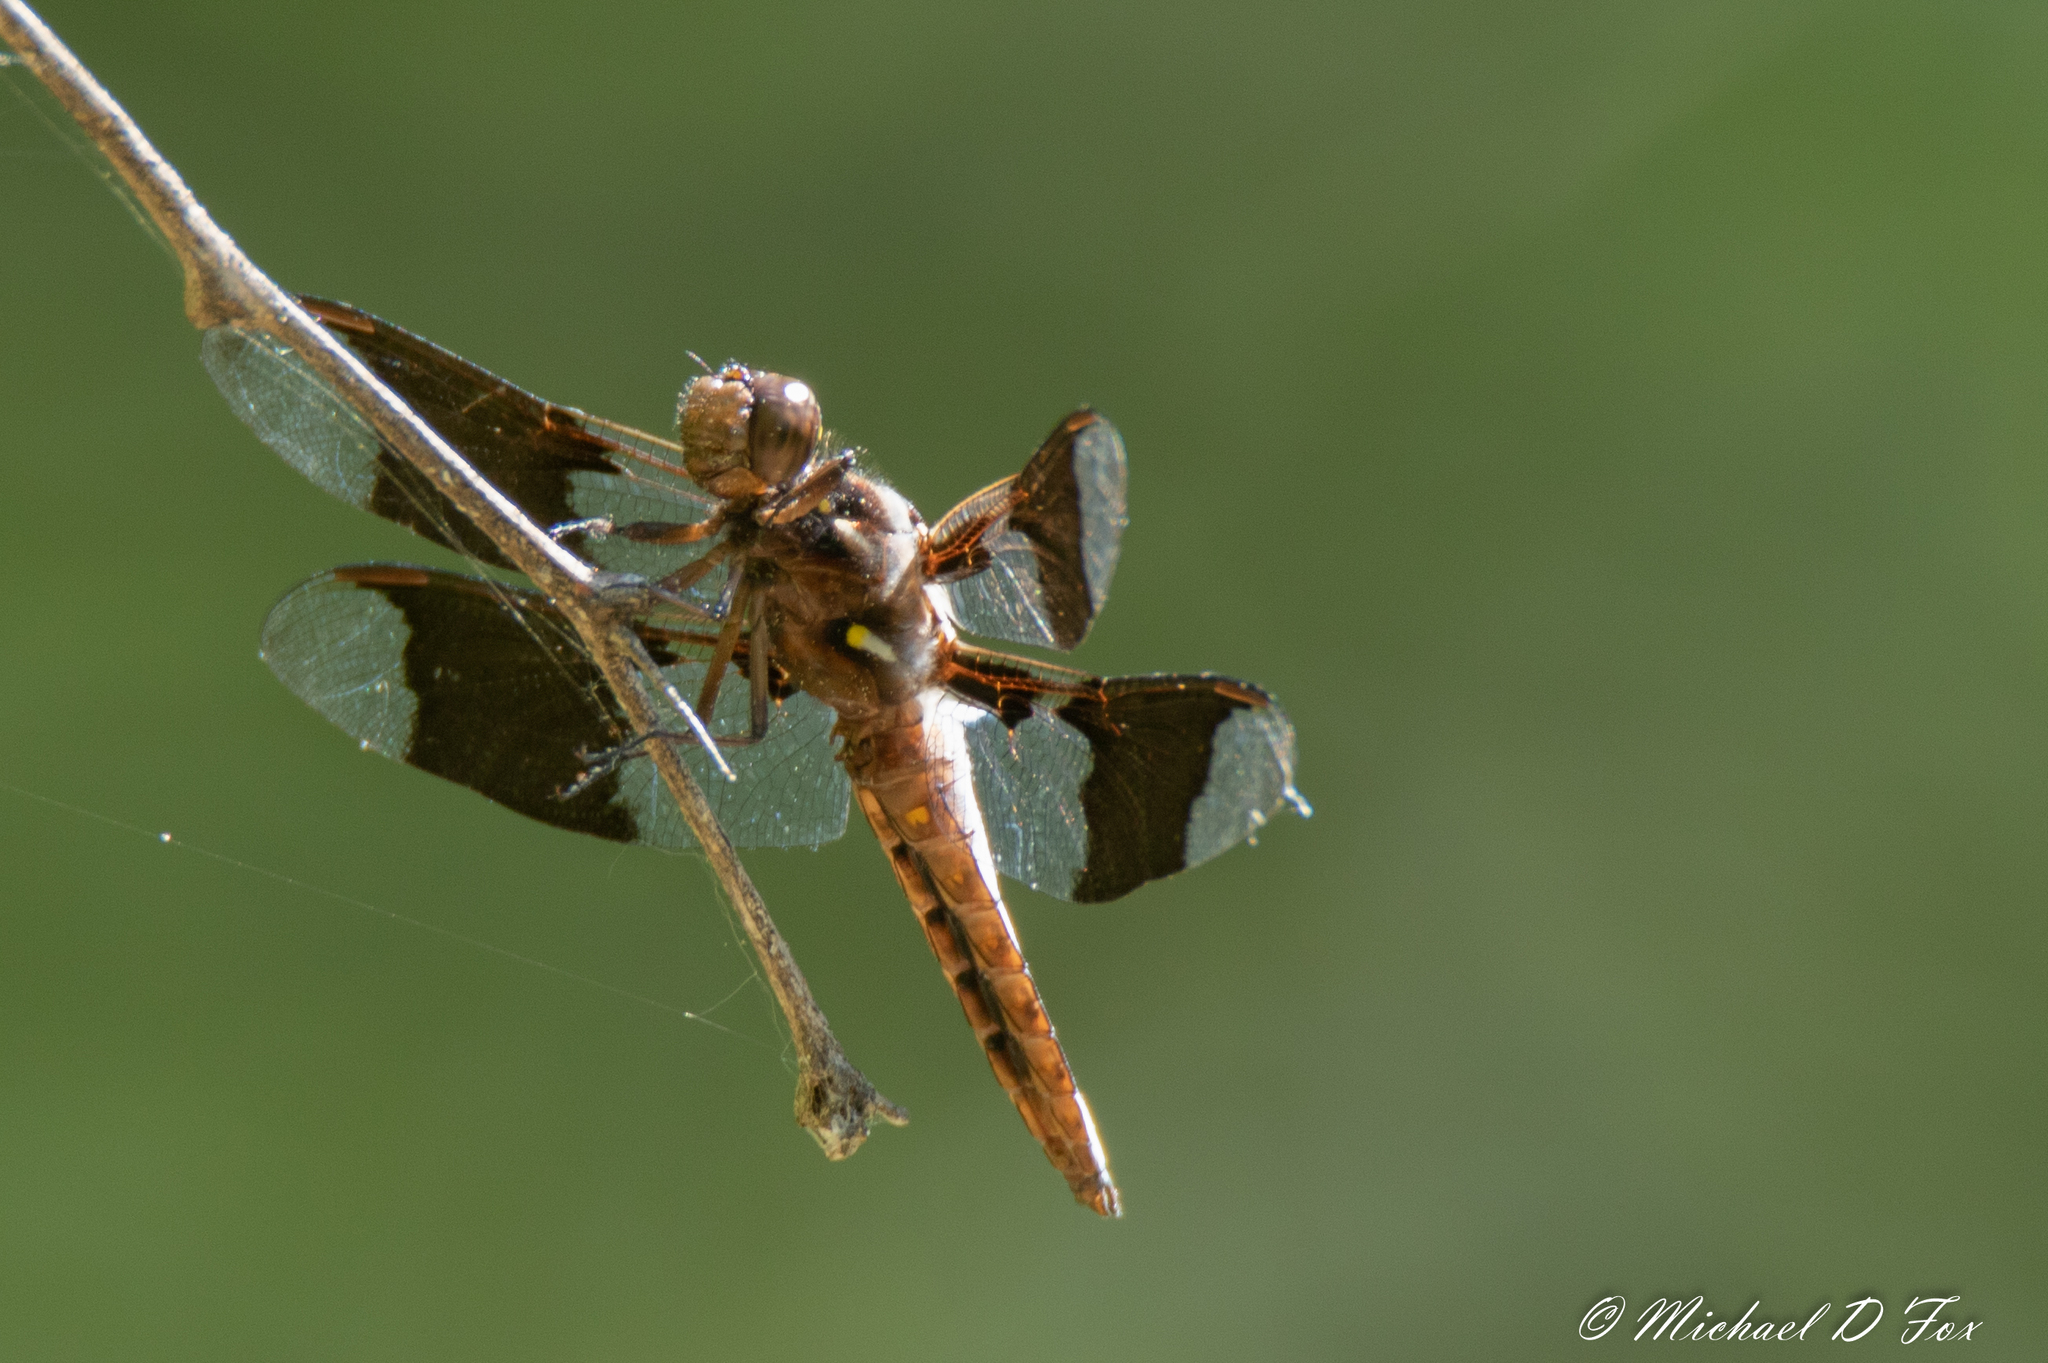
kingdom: Animalia
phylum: Arthropoda
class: Insecta
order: Odonata
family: Libellulidae
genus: Plathemis
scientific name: Plathemis lydia
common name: Common whitetail
